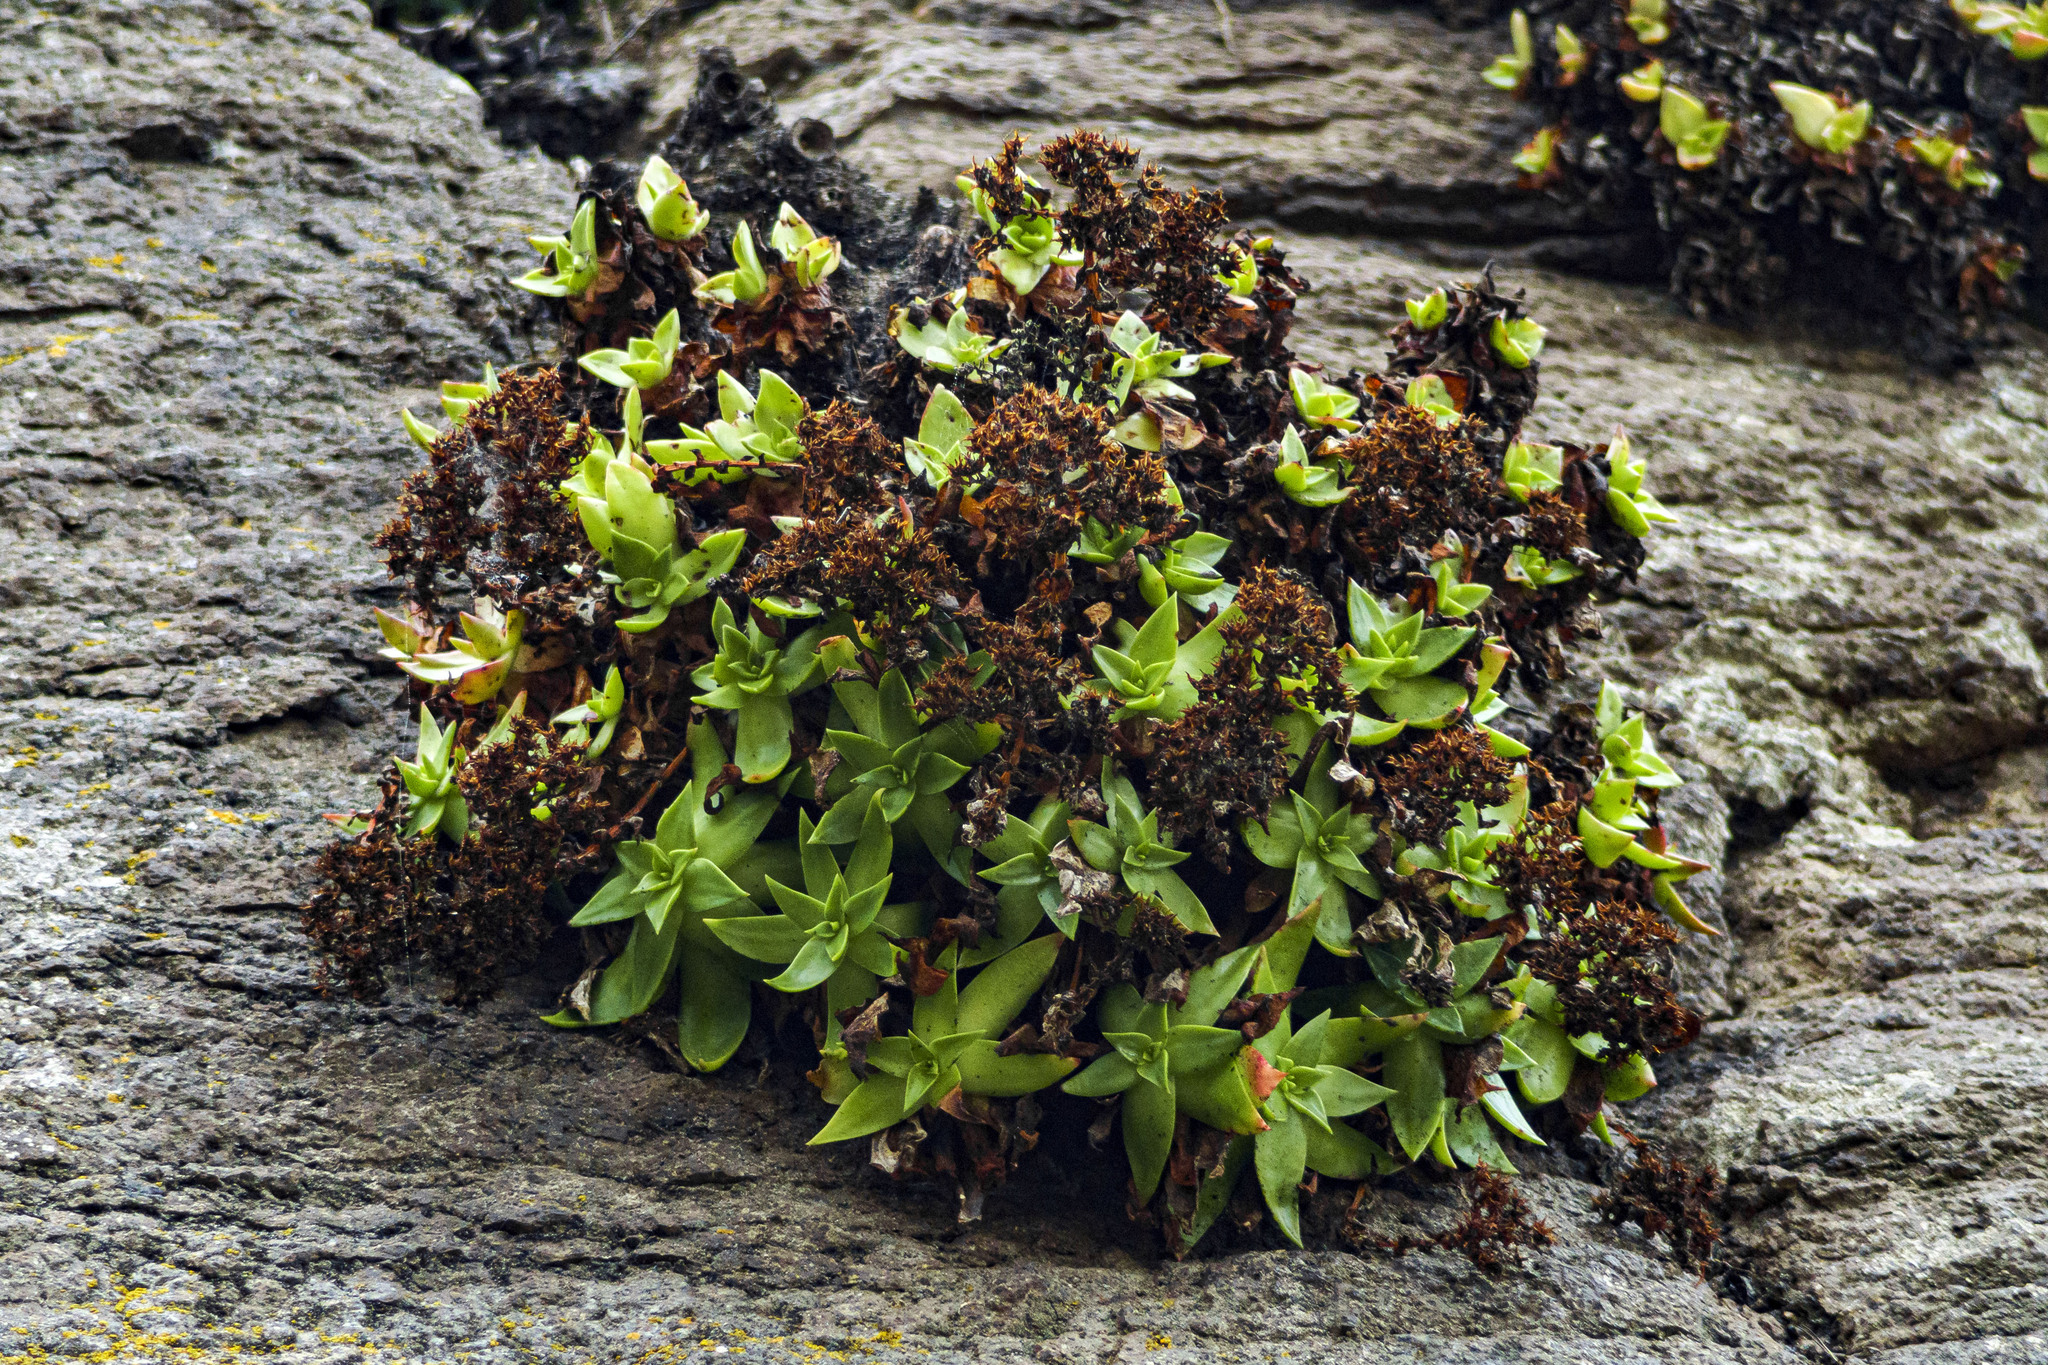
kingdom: Plantae
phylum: Tracheophyta
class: Magnoliopsida
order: Saxifragales
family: Crassulaceae
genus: Dudleya
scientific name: Dudleya formosa
